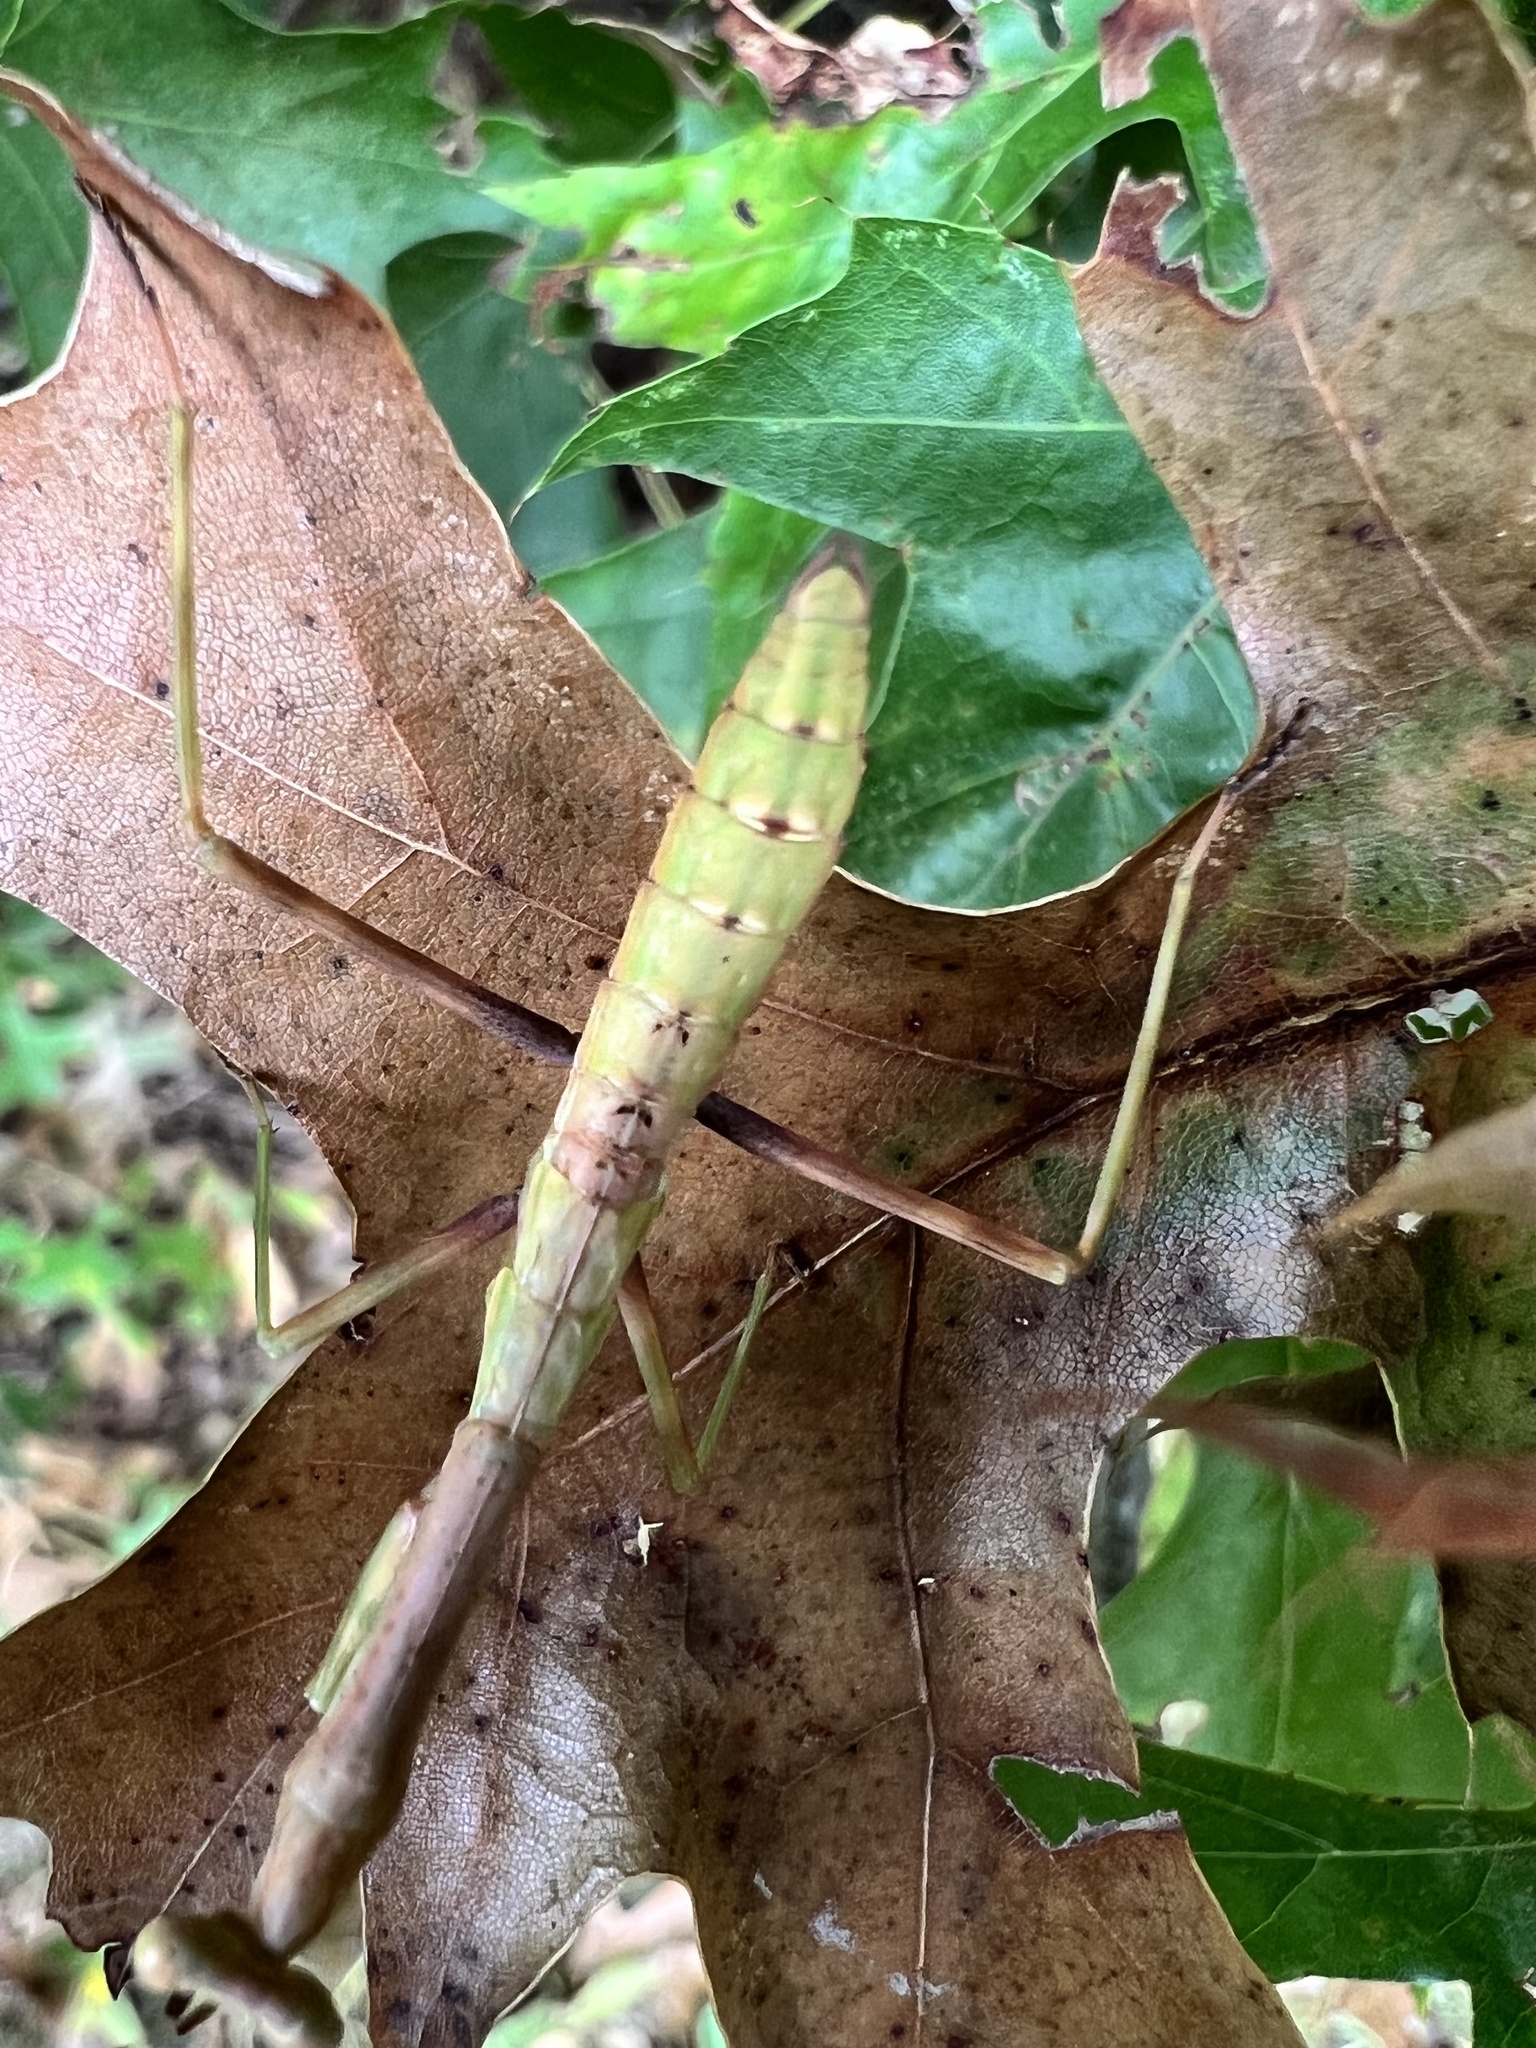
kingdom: Animalia
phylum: Arthropoda
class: Insecta
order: Mantodea
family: Mantidae
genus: Stagmomantis
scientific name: Stagmomantis carolina
